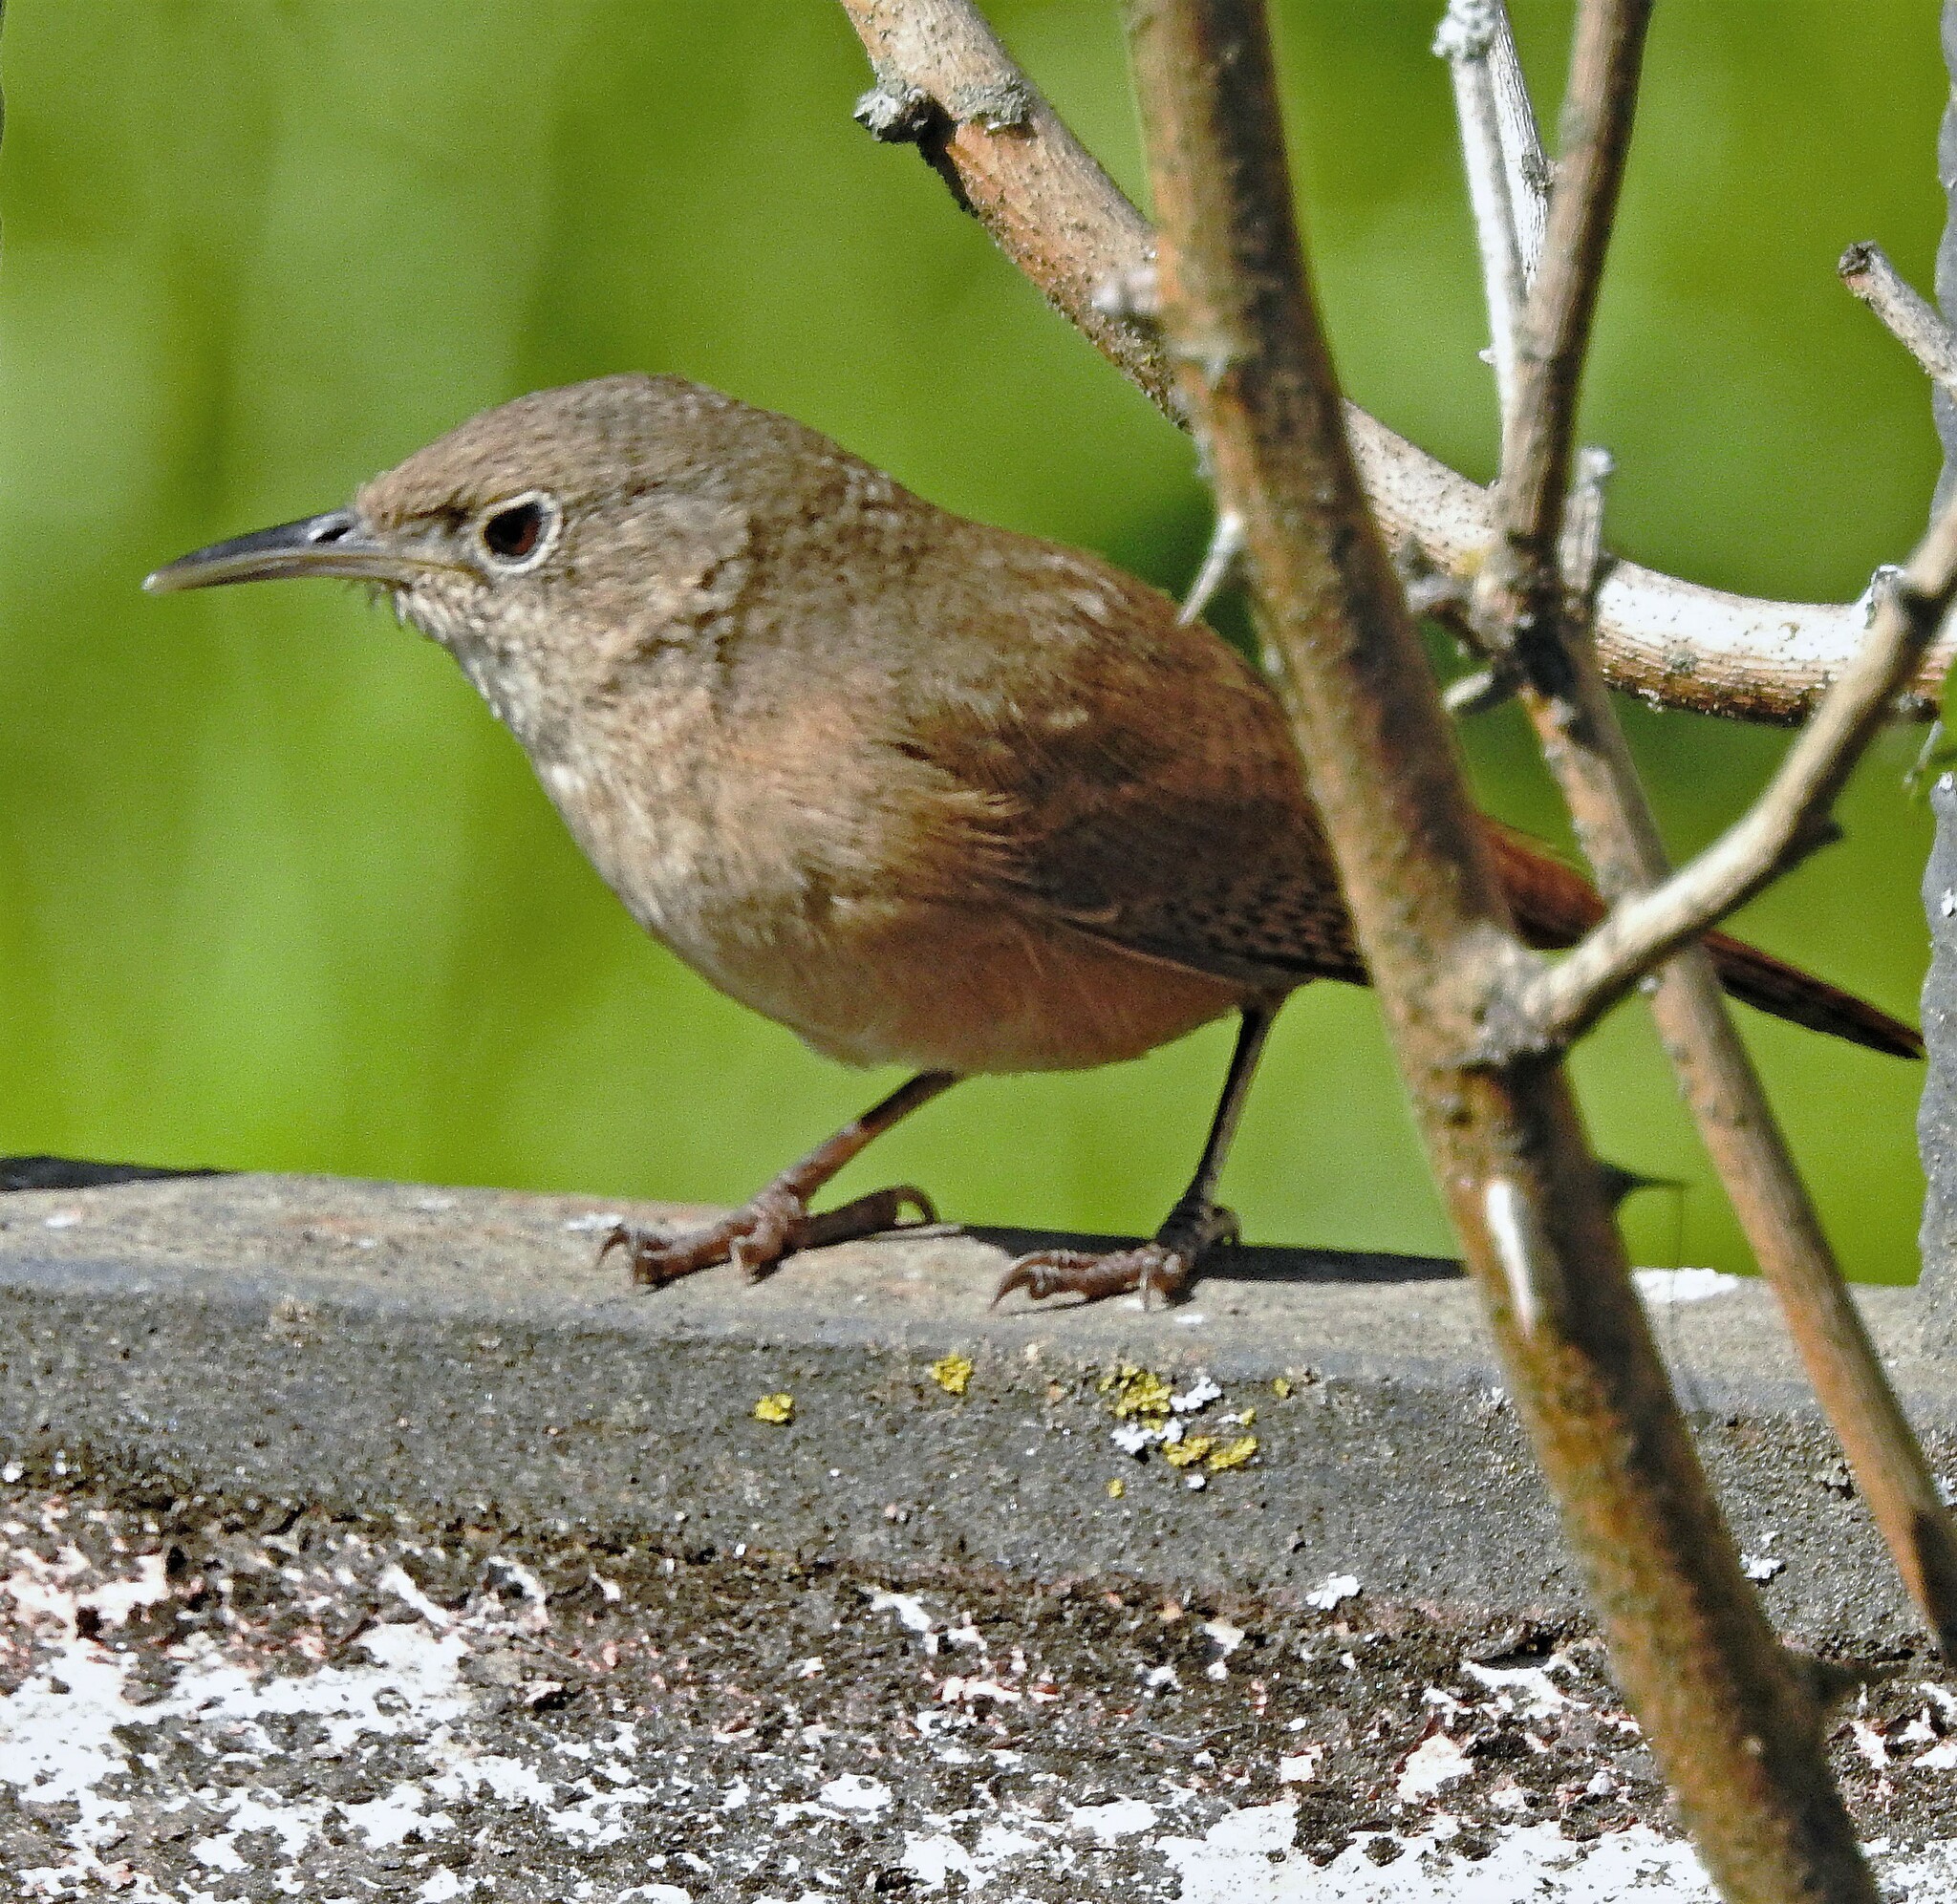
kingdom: Animalia
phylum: Chordata
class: Aves
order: Passeriformes
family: Troglodytidae
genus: Troglodytes
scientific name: Troglodytes aedon
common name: House wren
